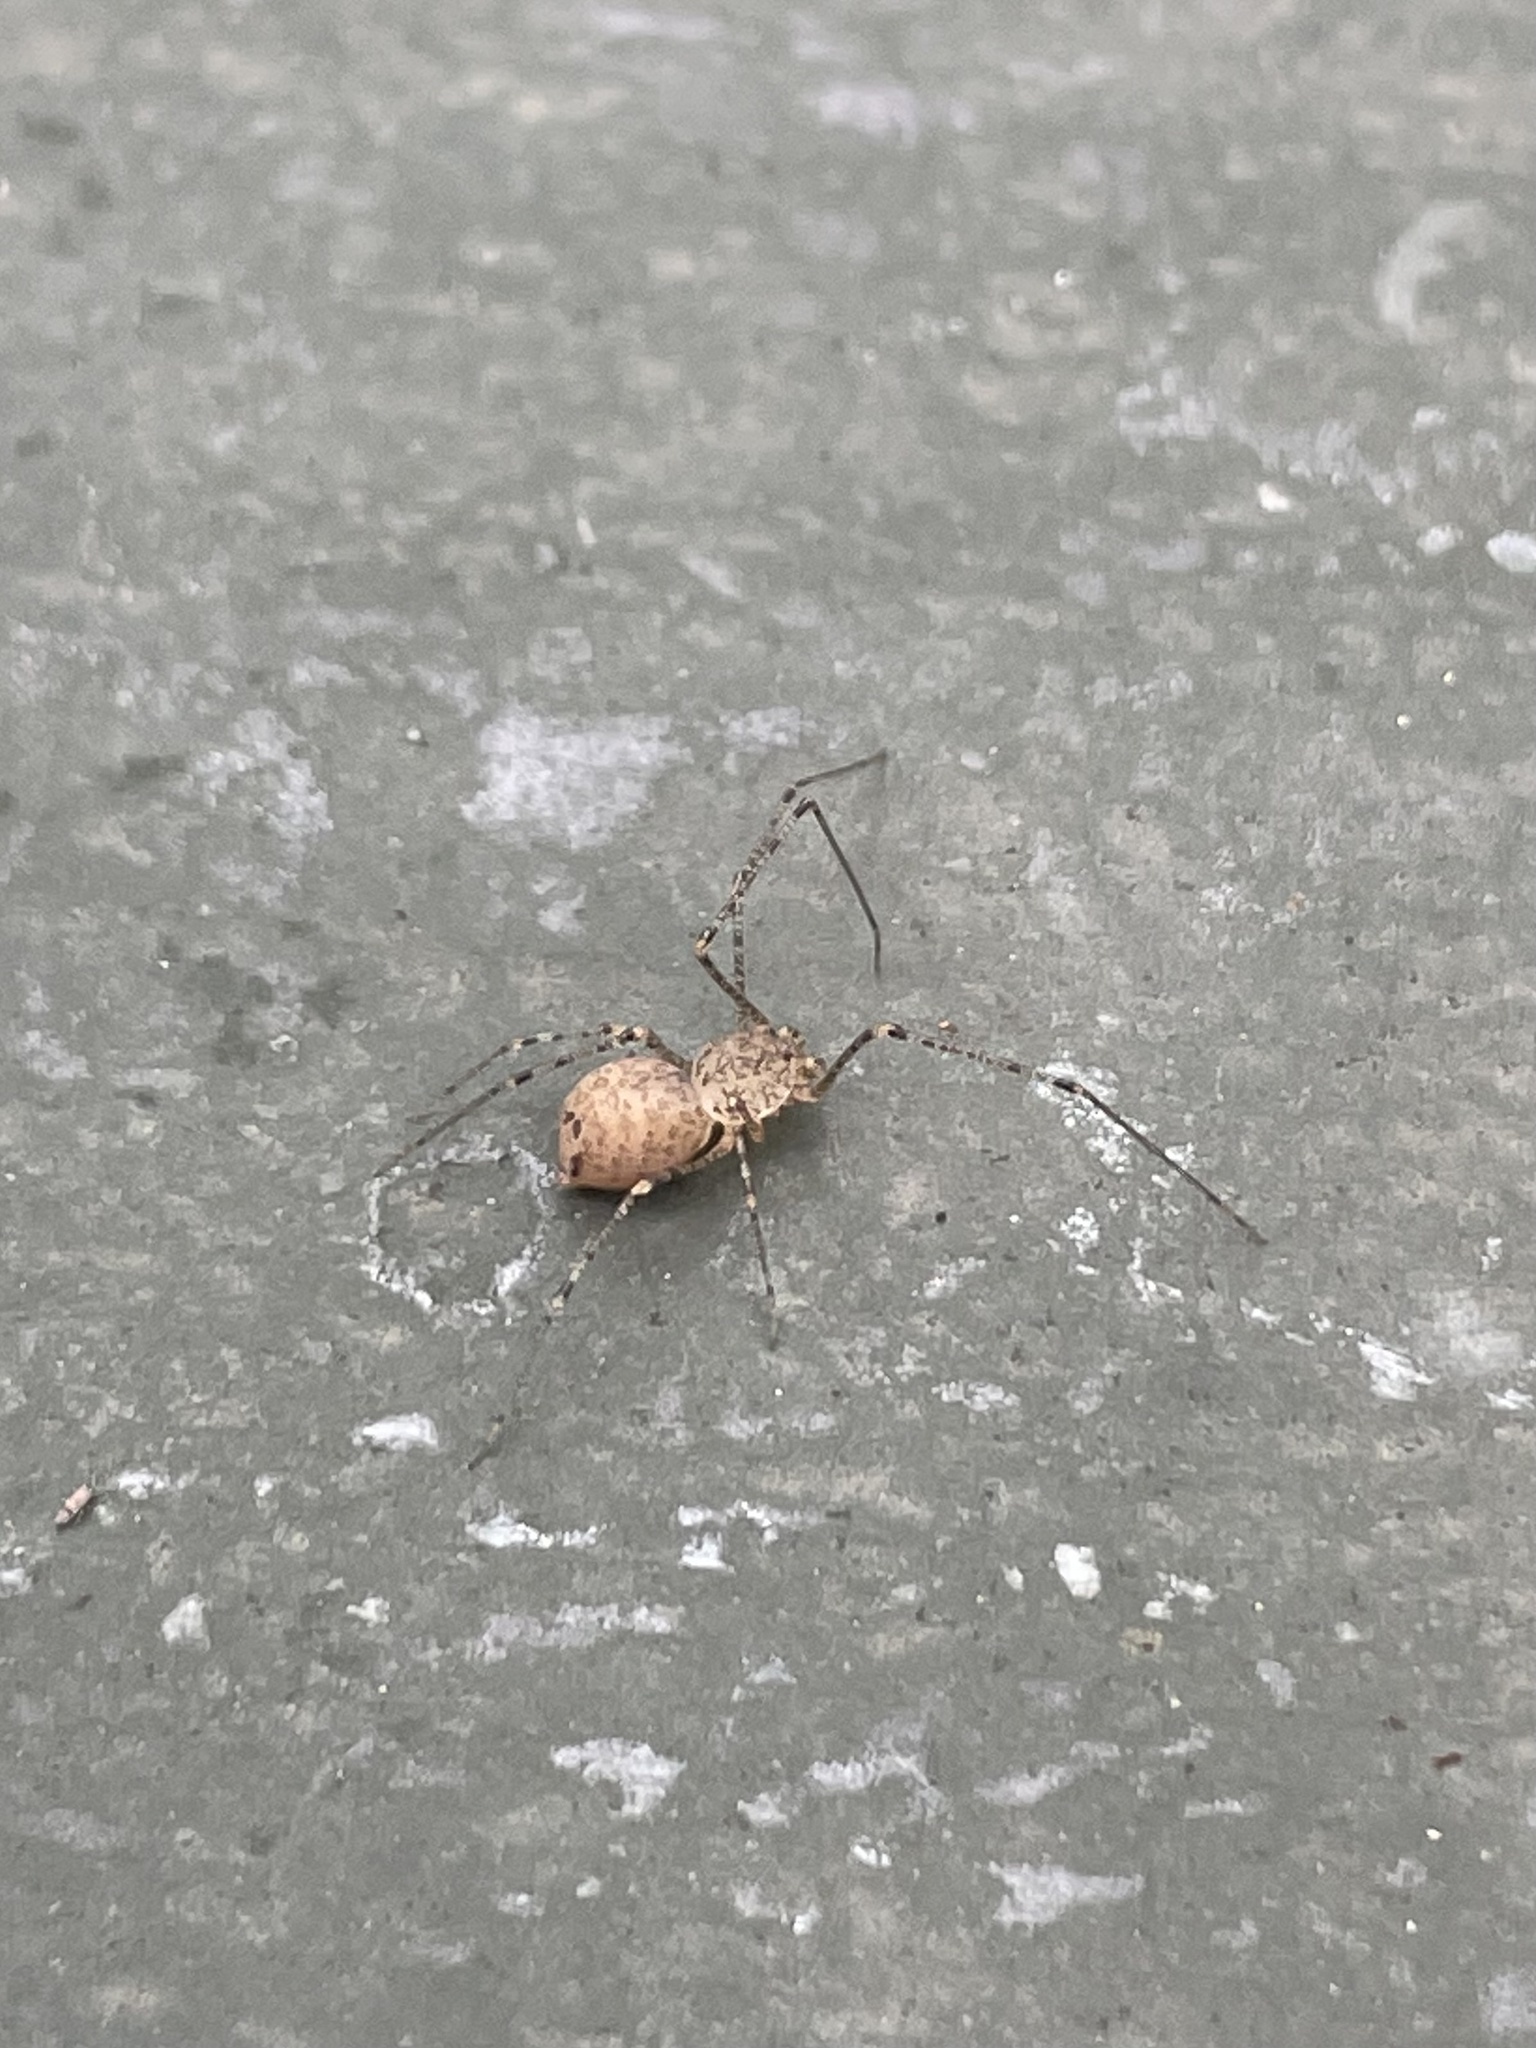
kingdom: Animalia
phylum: Arthropoda
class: Arachnida
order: Araneae
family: Scytodidae
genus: Scytodes
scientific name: Scytodes atlacoya
